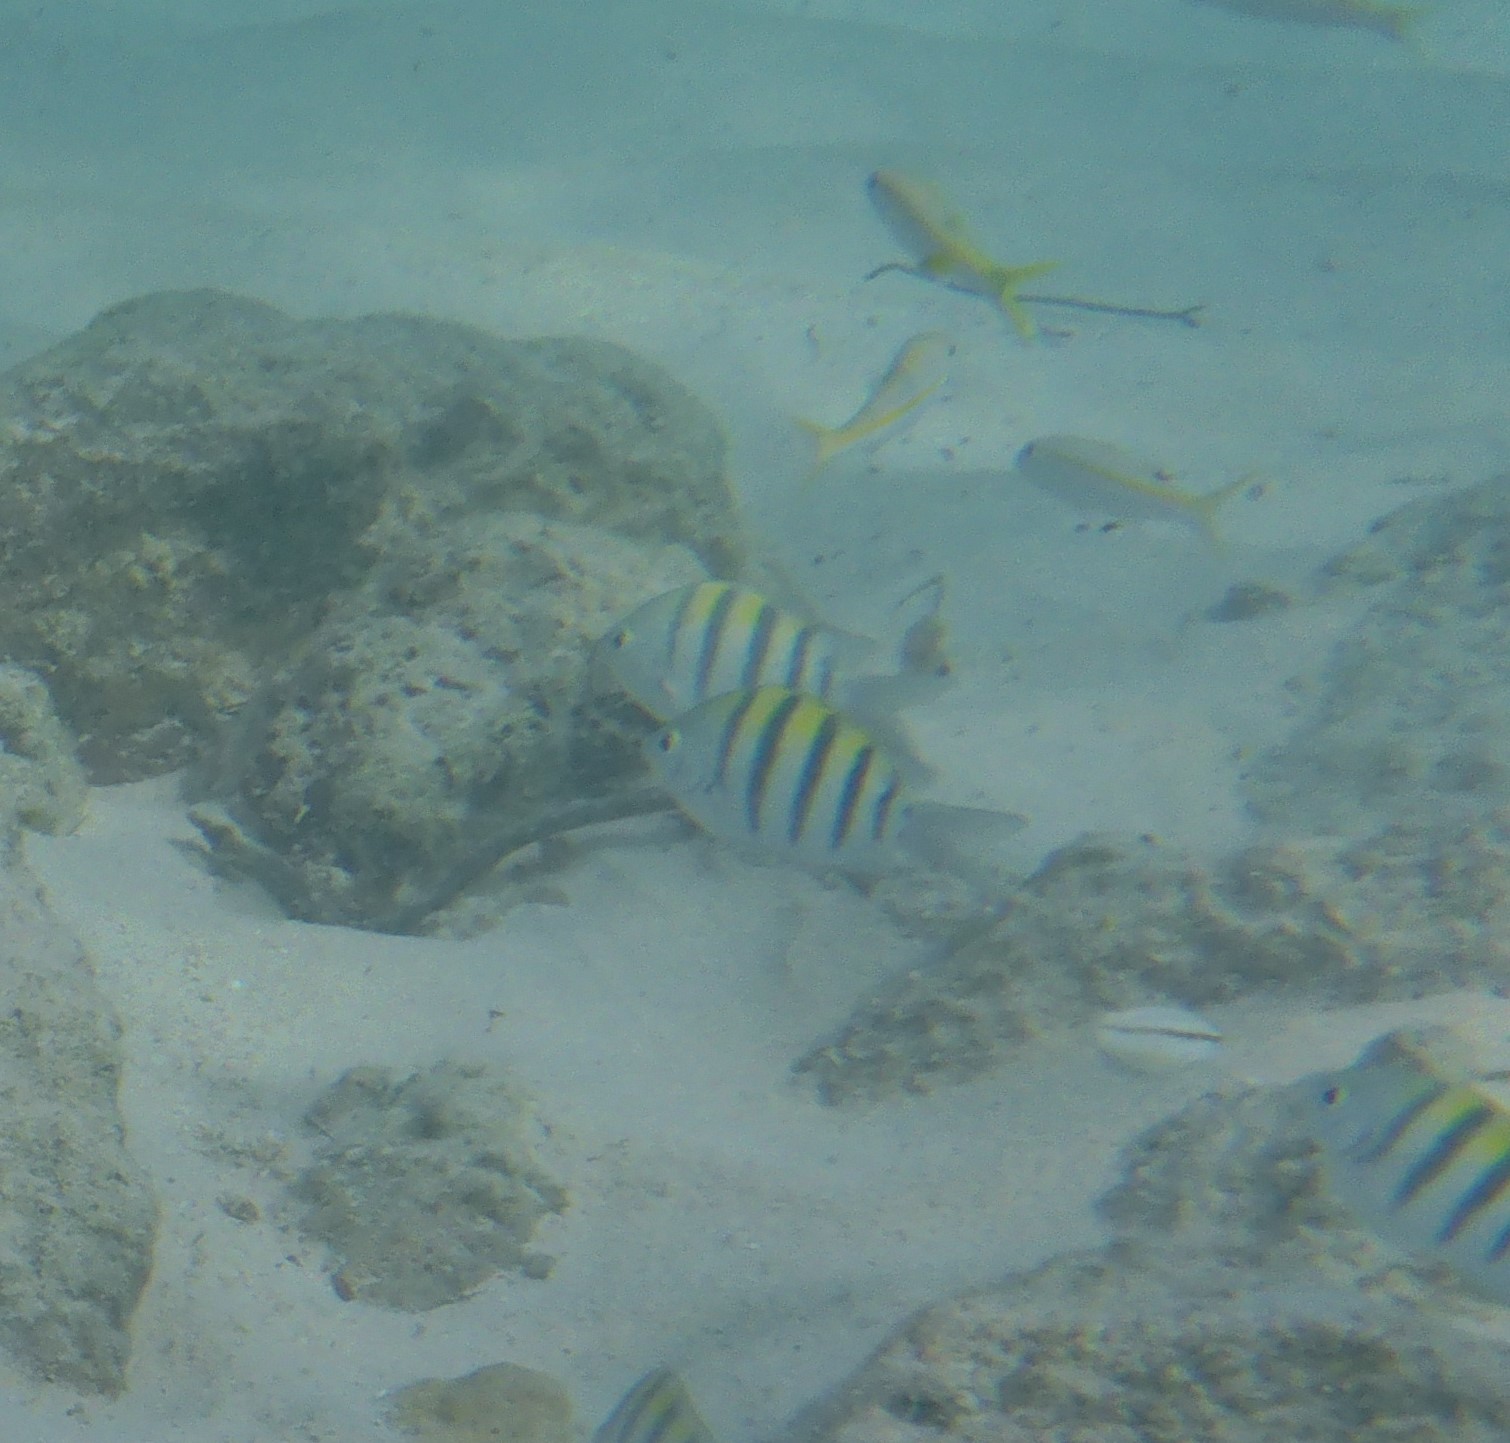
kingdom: Animalia
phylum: Chordata
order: Perciformes
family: Pomacentridae
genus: Abudefduf
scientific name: Abudefduf saxatilis
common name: Sergeant major
